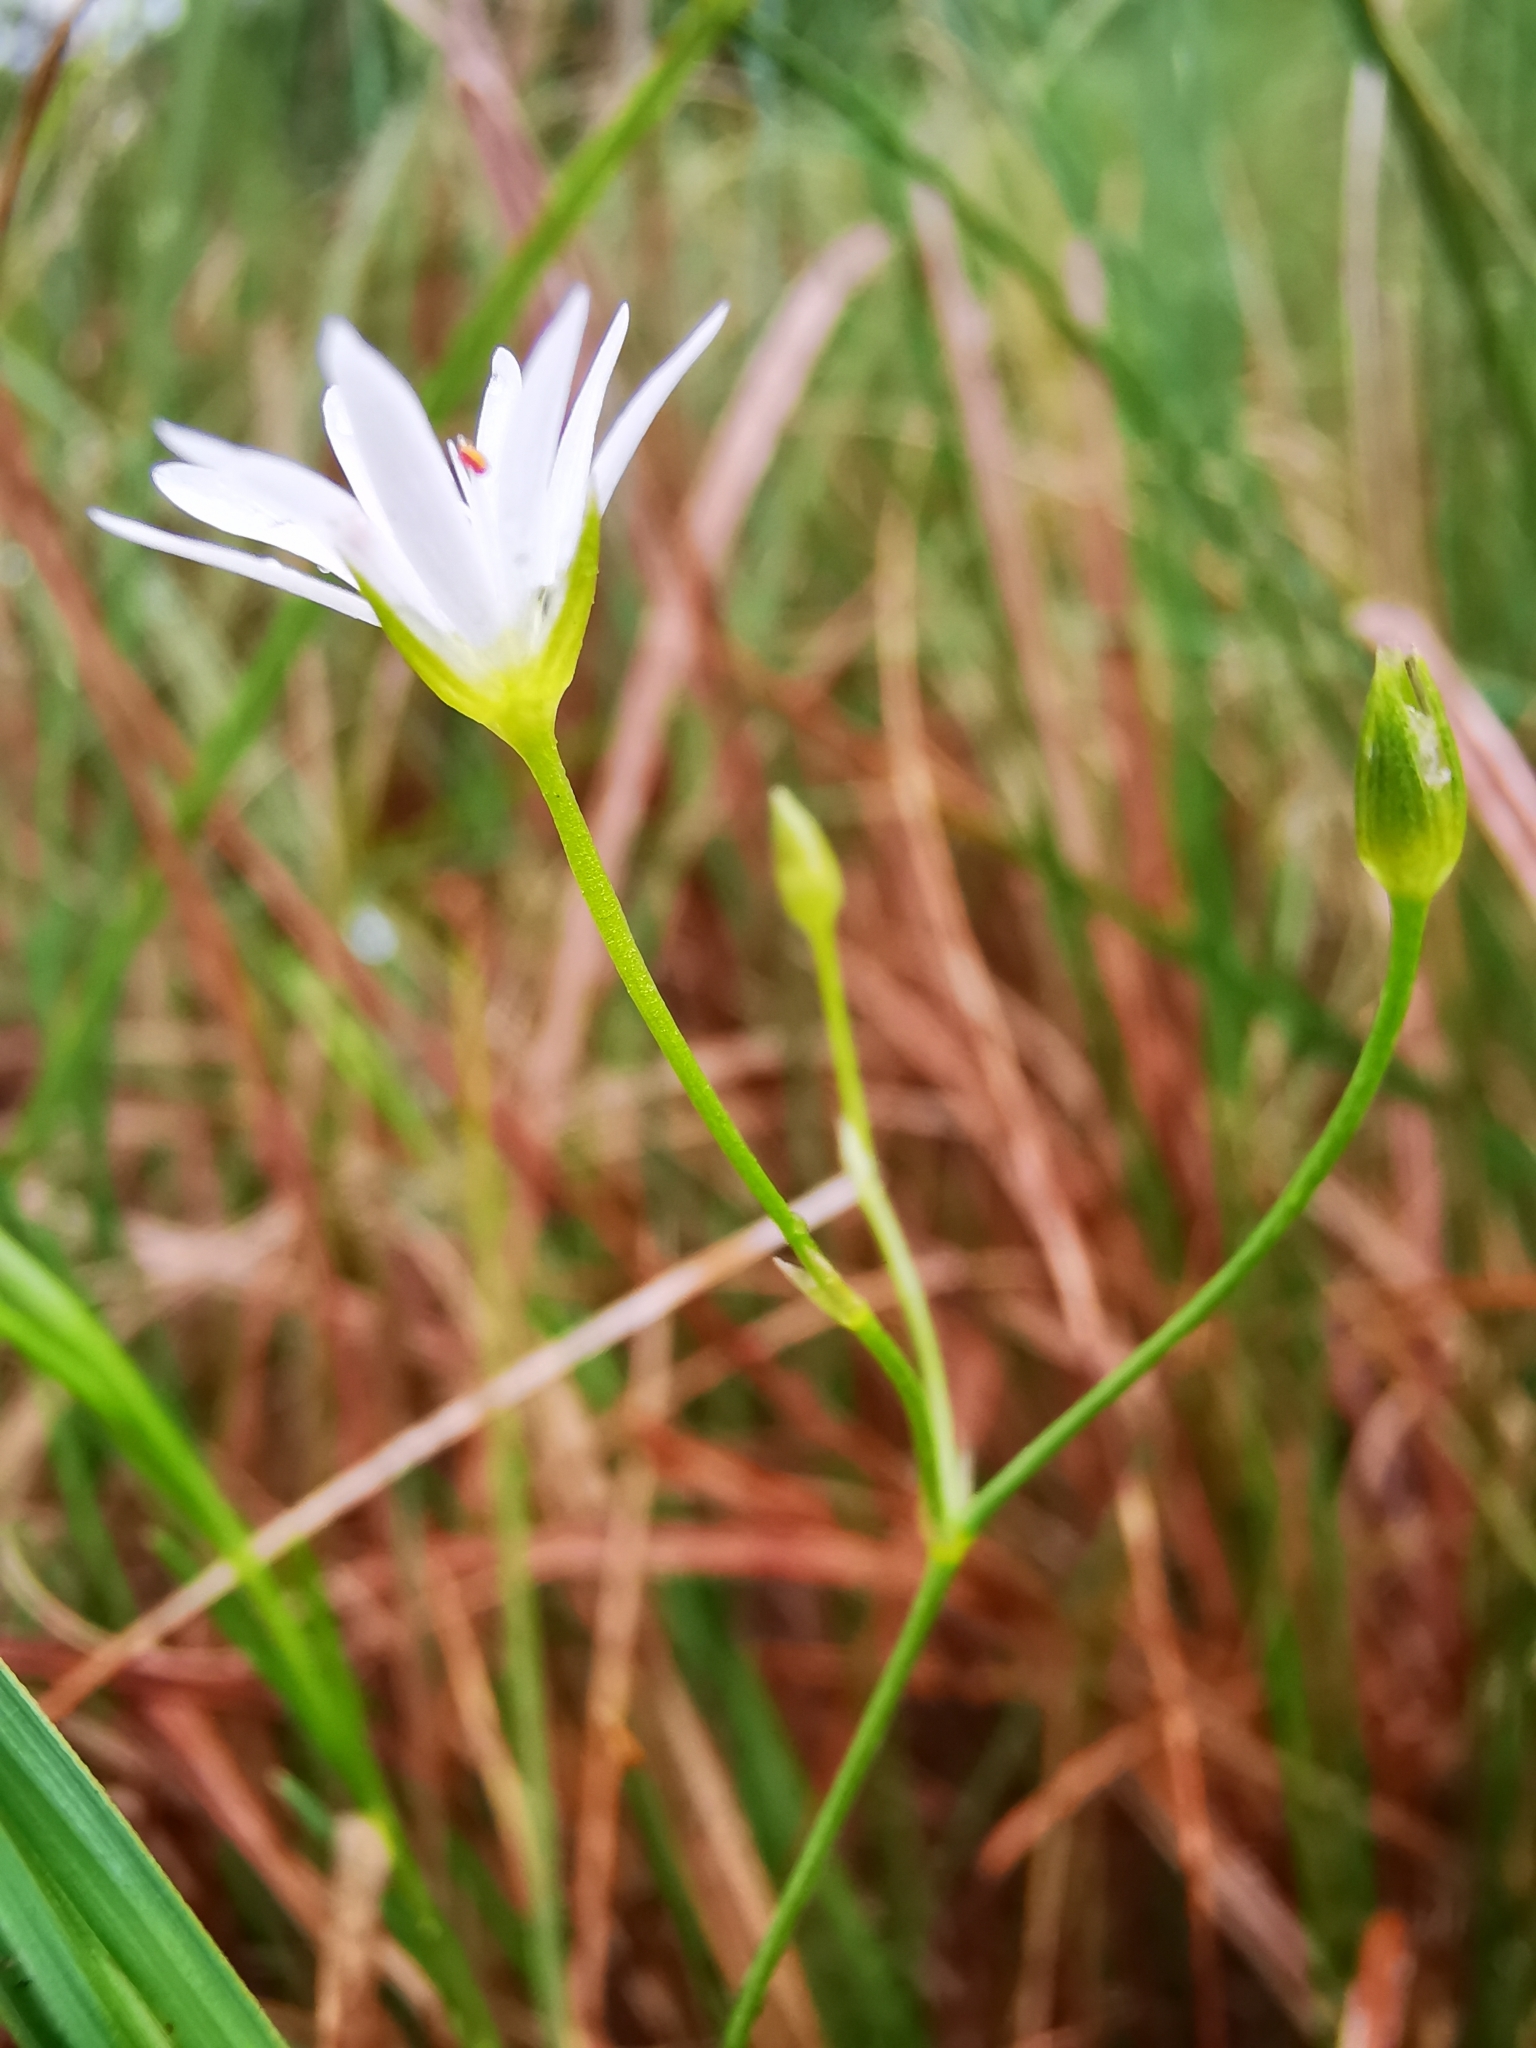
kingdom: Plantae
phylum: Tracheophyta
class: Magnoliopsida
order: Caryophyllales
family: Caryophyllaceae
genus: Stellaria
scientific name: Stellaria palustris
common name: Marsh stitchwort
